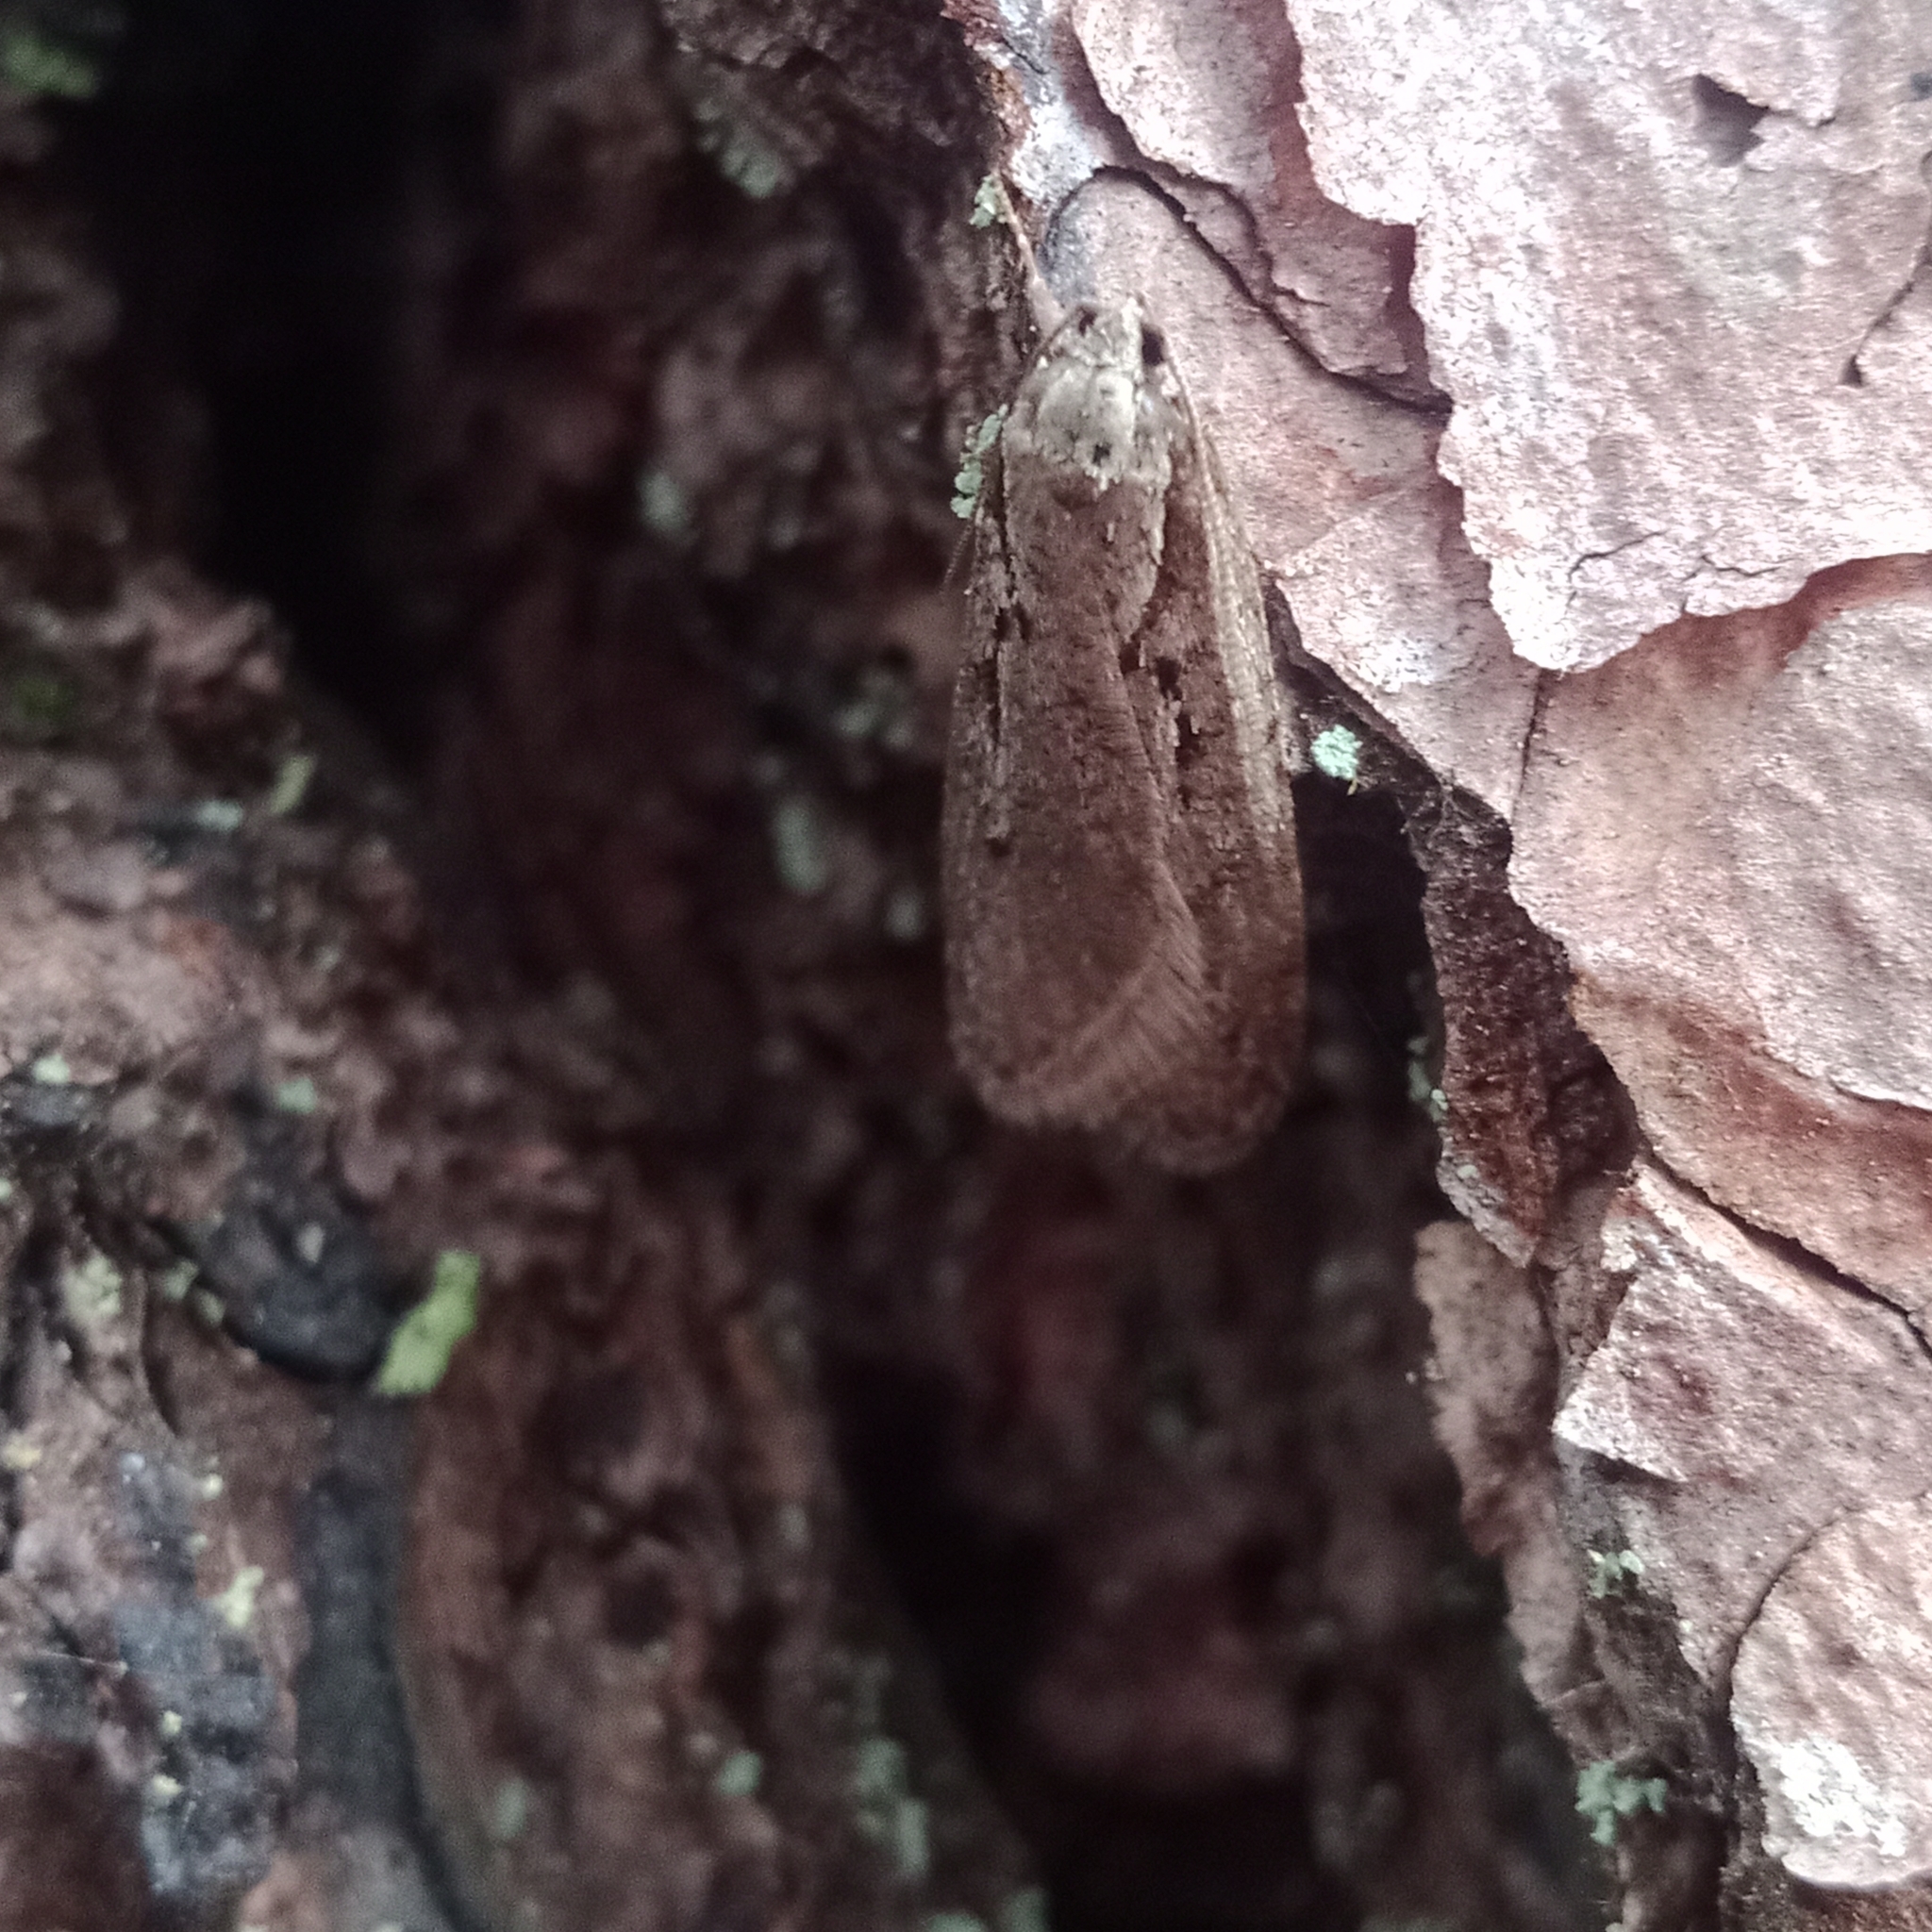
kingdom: Animalia
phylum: Arthropoda
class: Insecta
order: Lepidoptera
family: Depressariidae
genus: Semioscopis
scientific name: Semioscopis avellanella
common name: Early flat-body
